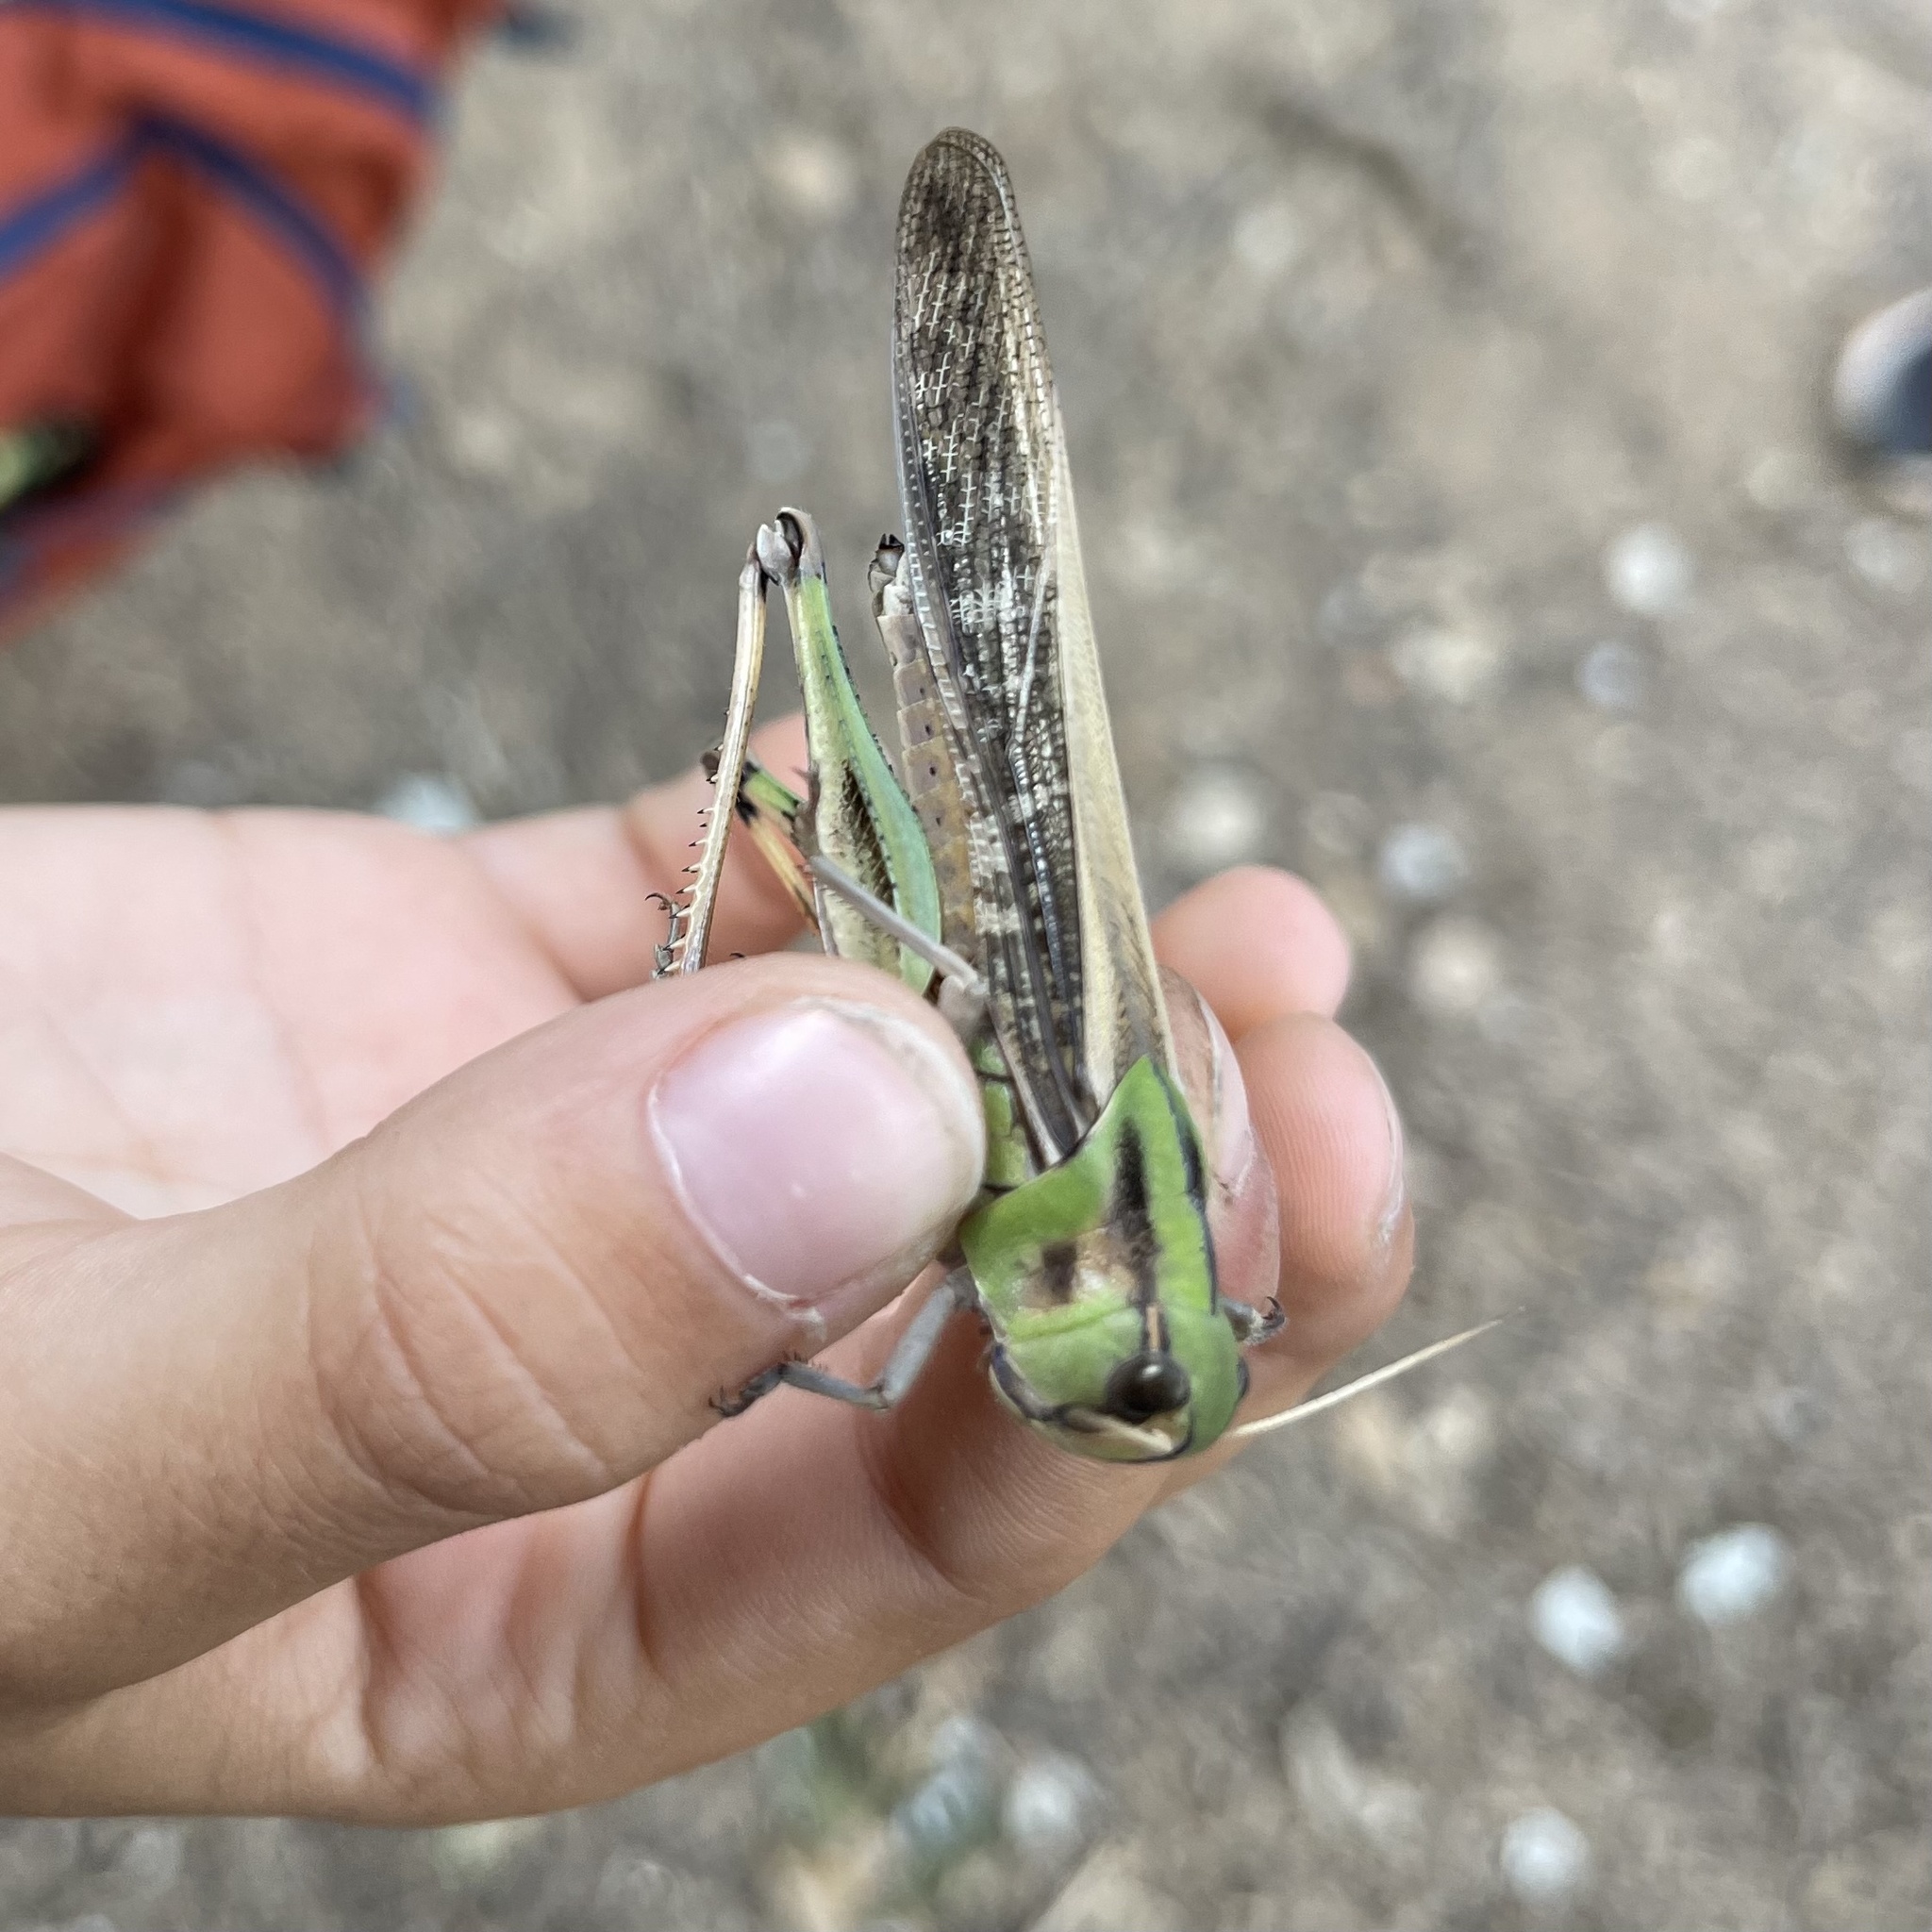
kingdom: Animalia
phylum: Arthropoda
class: Insecta
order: Orthoptera
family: Acrididae
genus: Locusta
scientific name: Locusta migratoria
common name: Migratory locust
